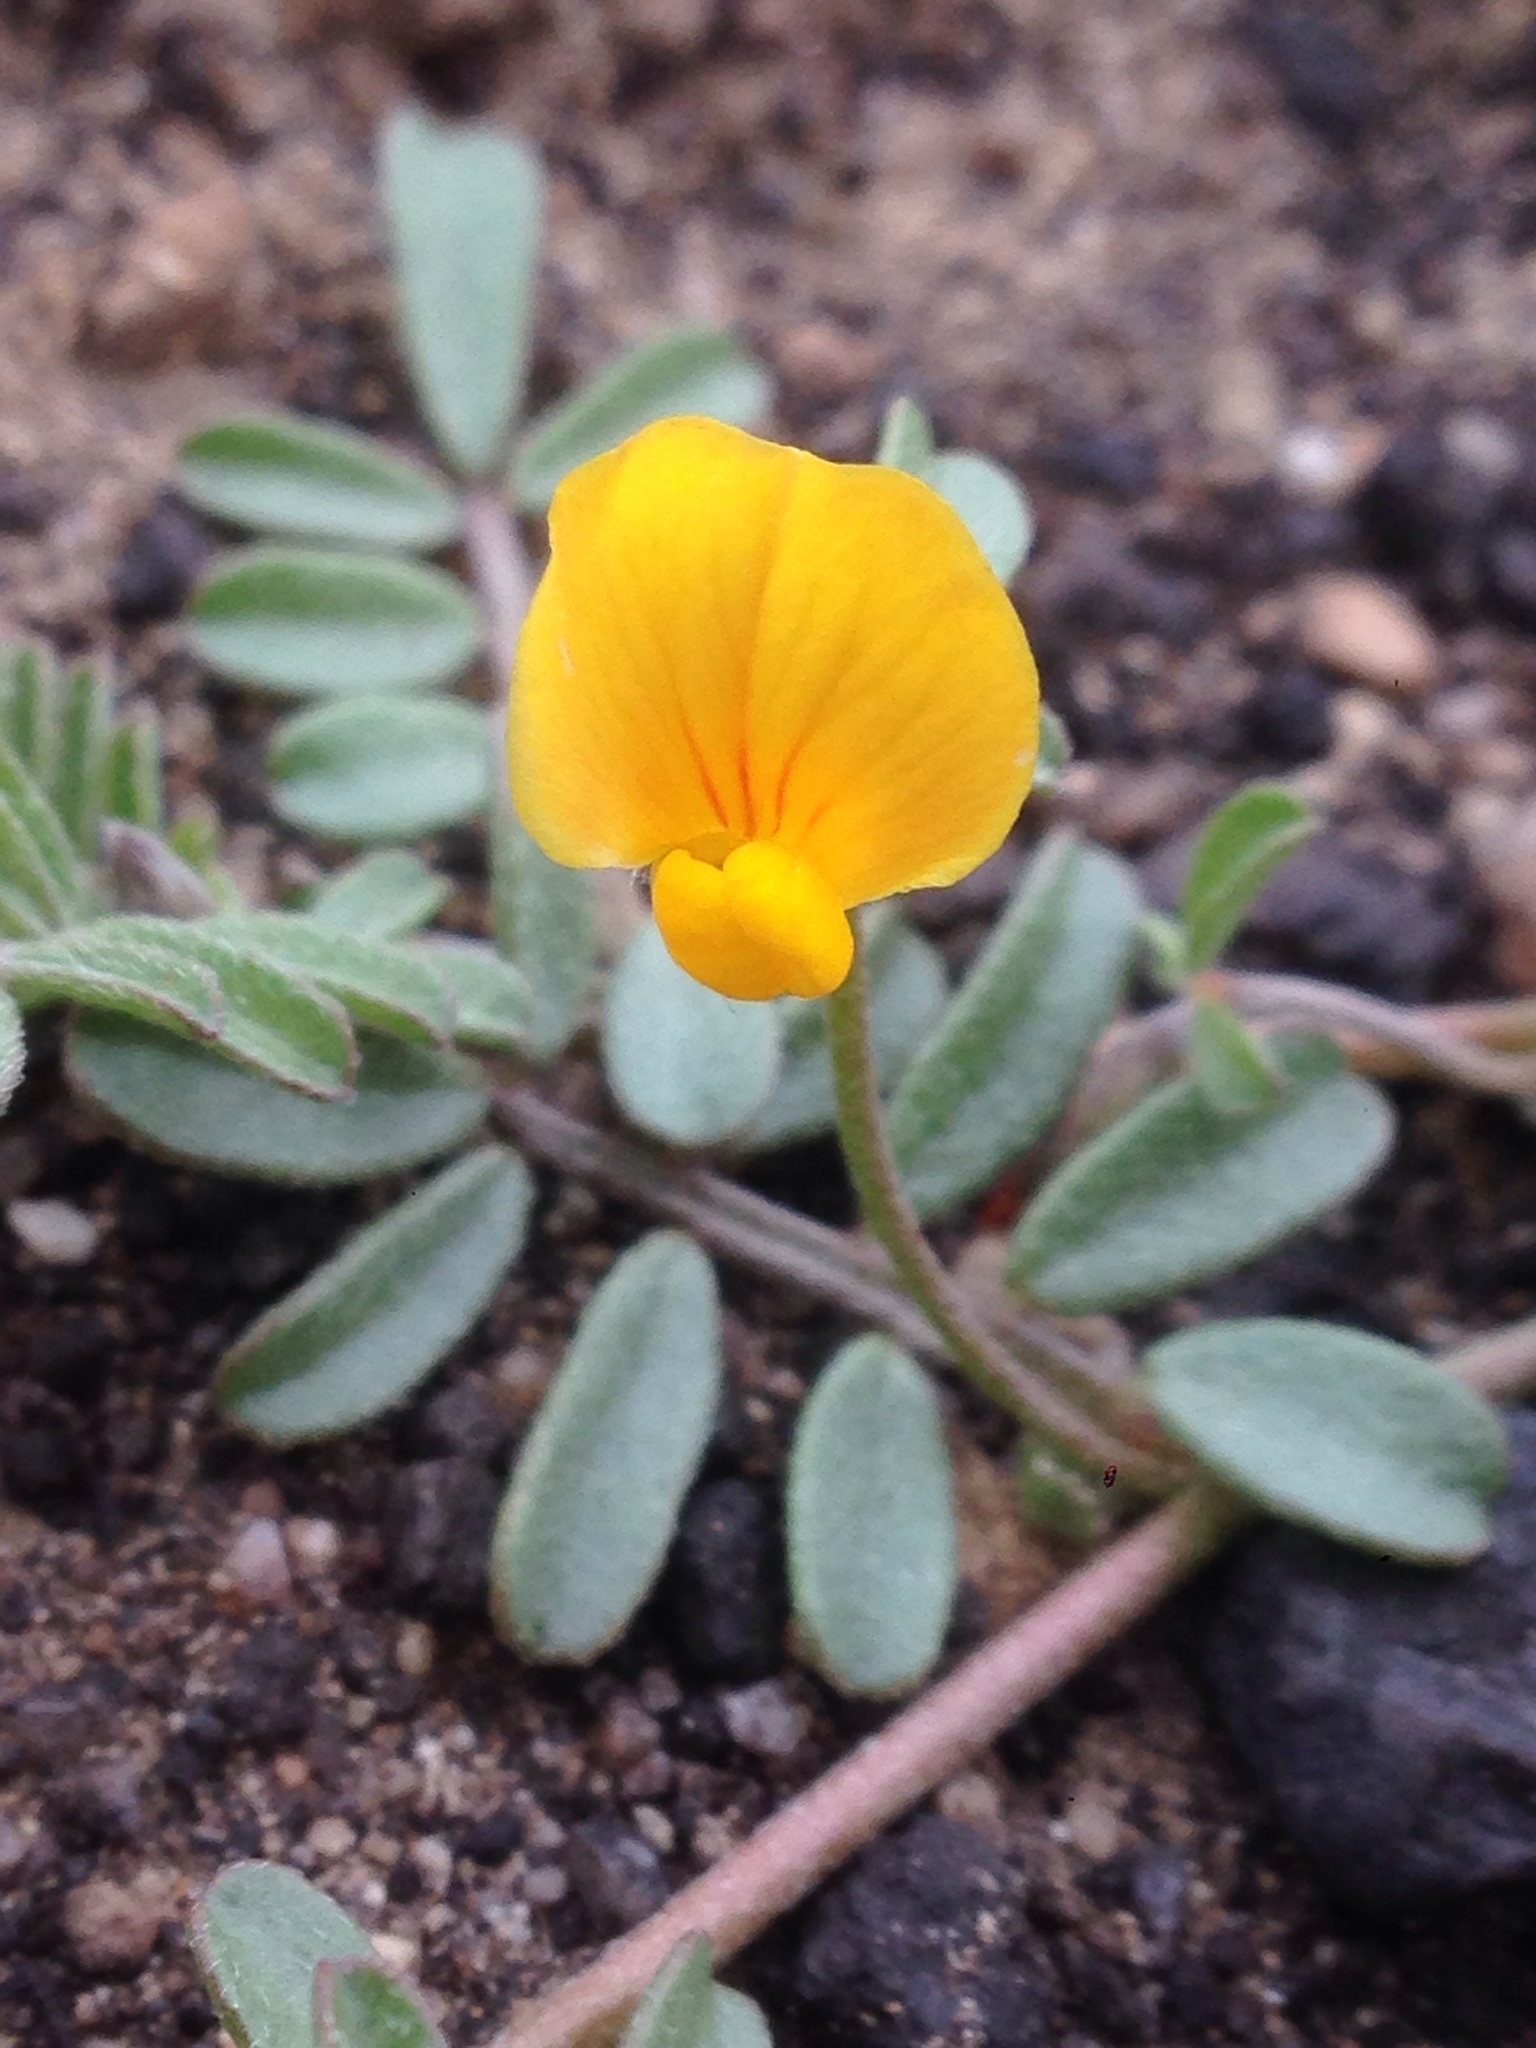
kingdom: Plantae
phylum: Tracheophyta
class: Magnoliopsida
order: Fabales
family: Fabaceae
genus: Acmispon
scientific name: Acmispon strigosus
